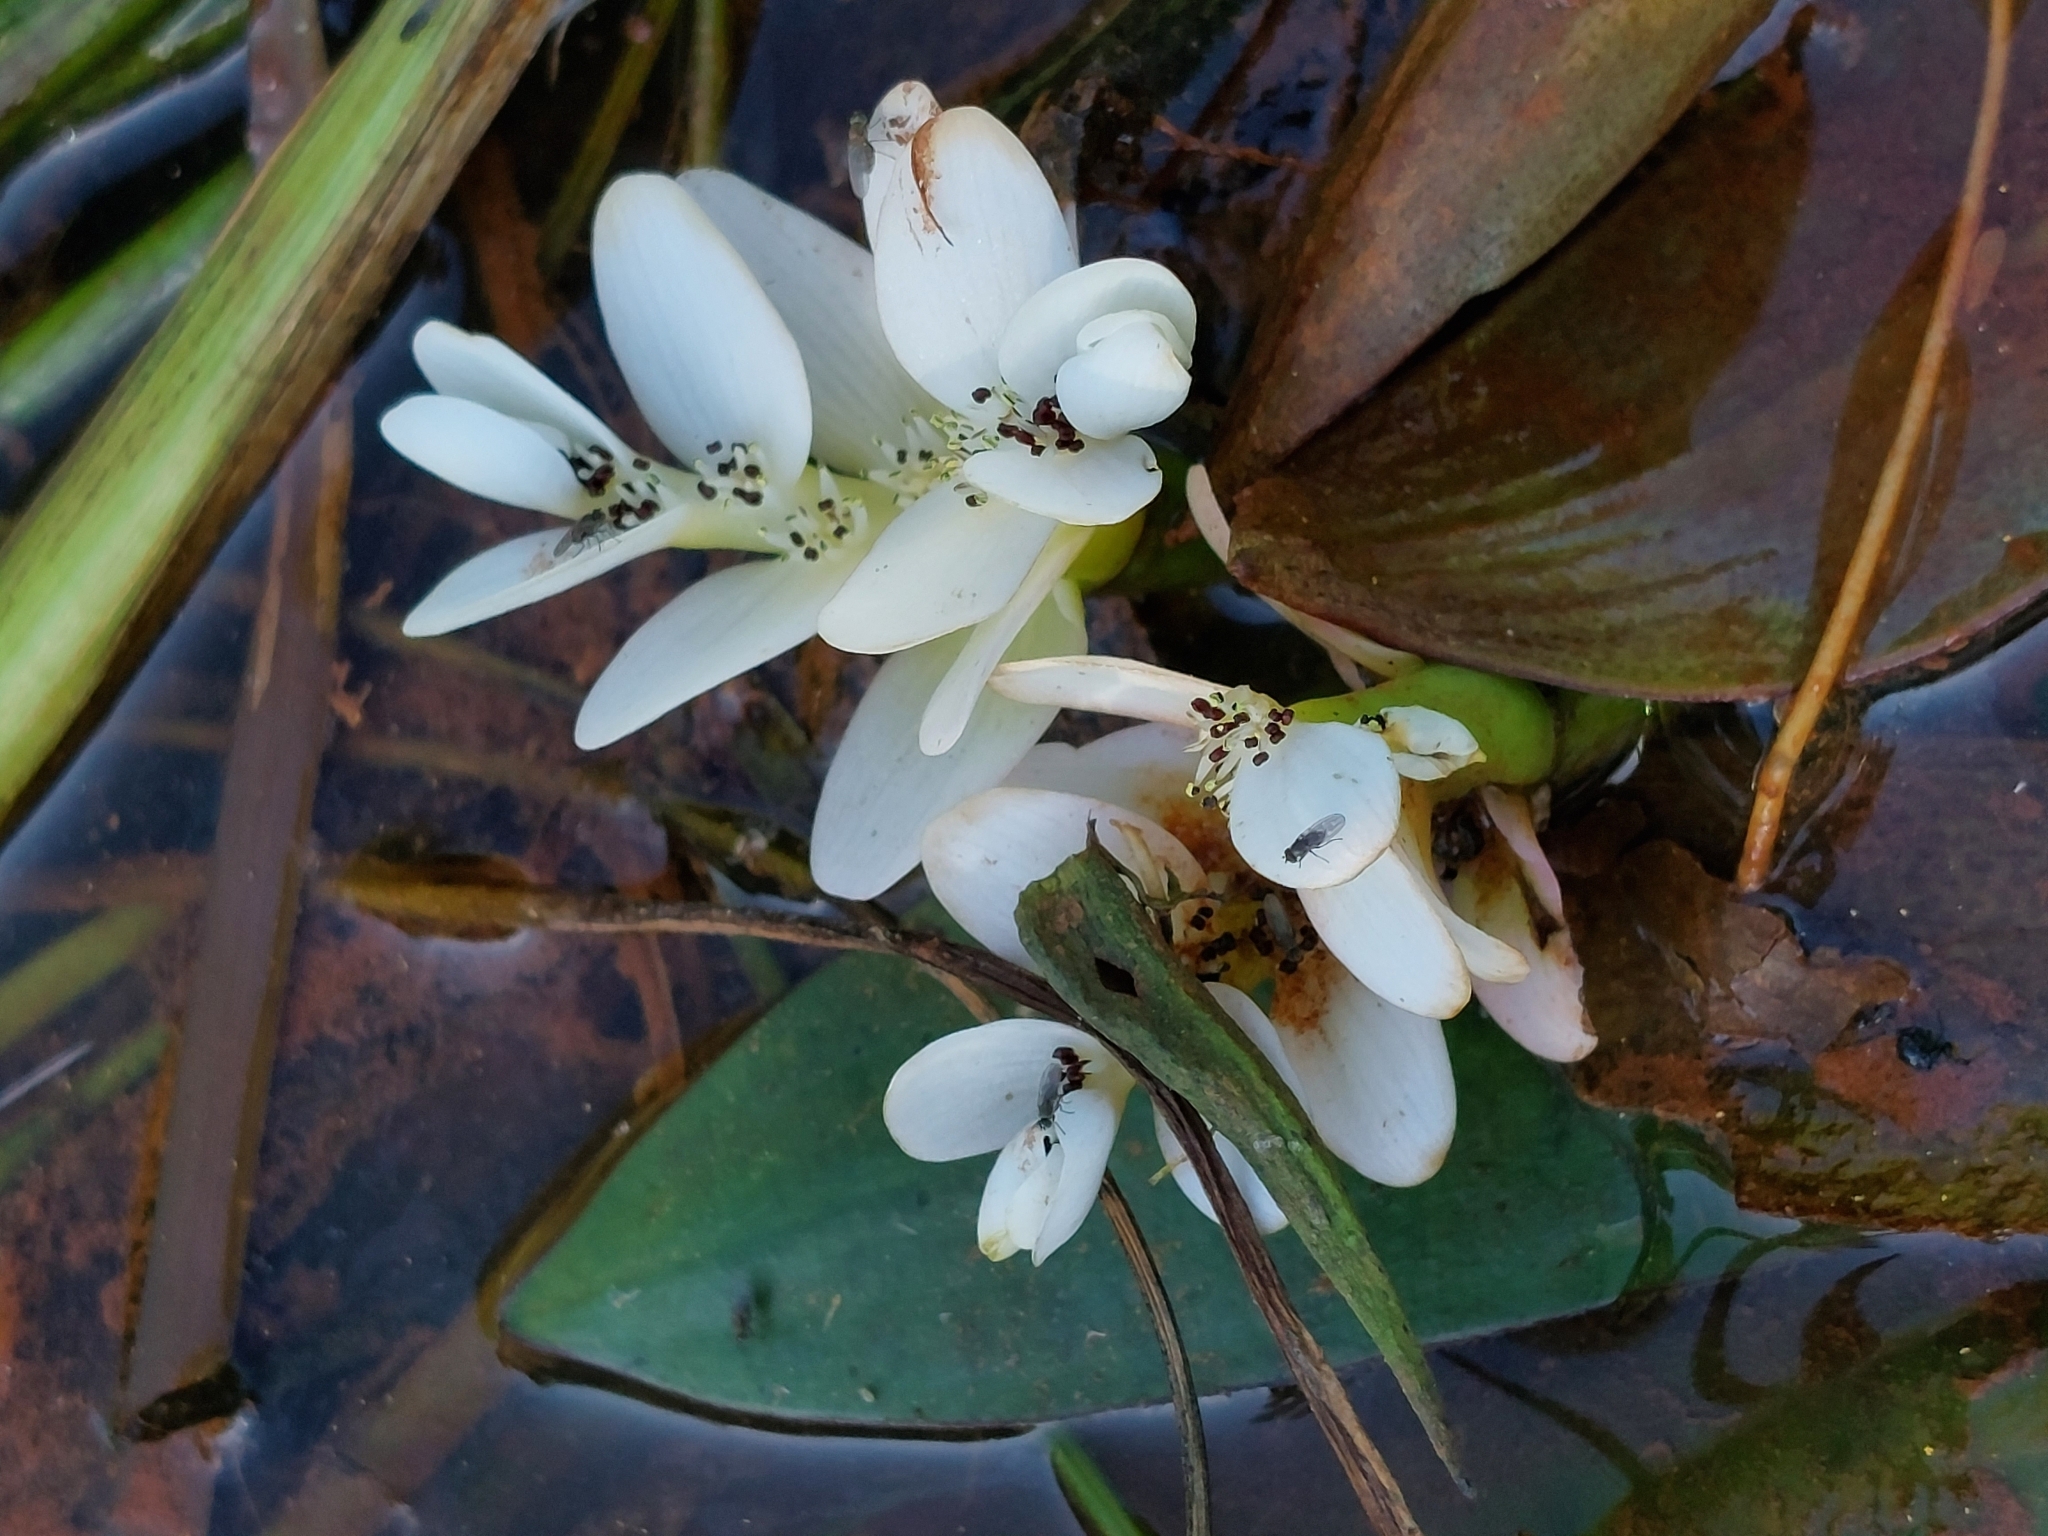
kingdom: Plantae
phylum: Tracheophyta
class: Liliopsida
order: Alismatales
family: Aponogetonaceae
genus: Aponogeton
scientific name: Aponogeton distachyos
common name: Cape-pondweed
